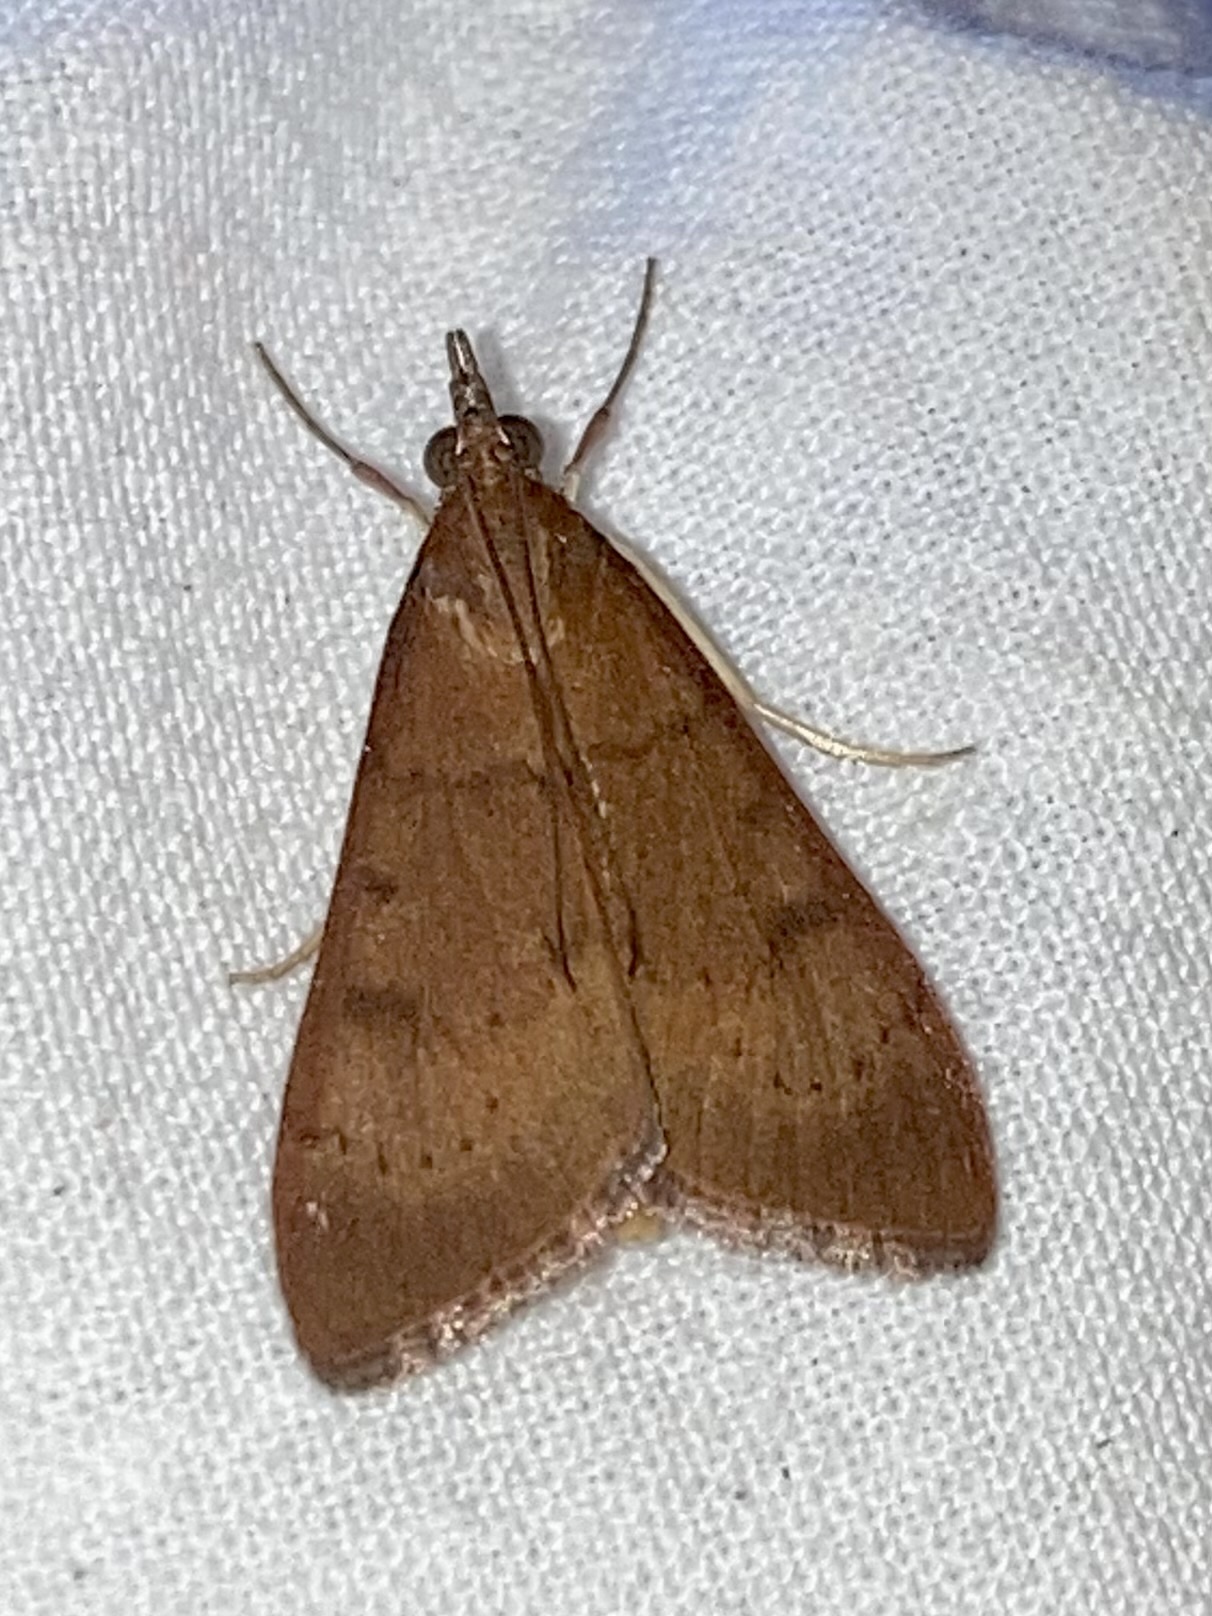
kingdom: Animalia
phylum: Arthropoda
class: Insecta
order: Lepidoptera
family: Crambidae
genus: Uresiphita
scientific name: Uresiphita gilvata
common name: Yellow-underwing pearl
